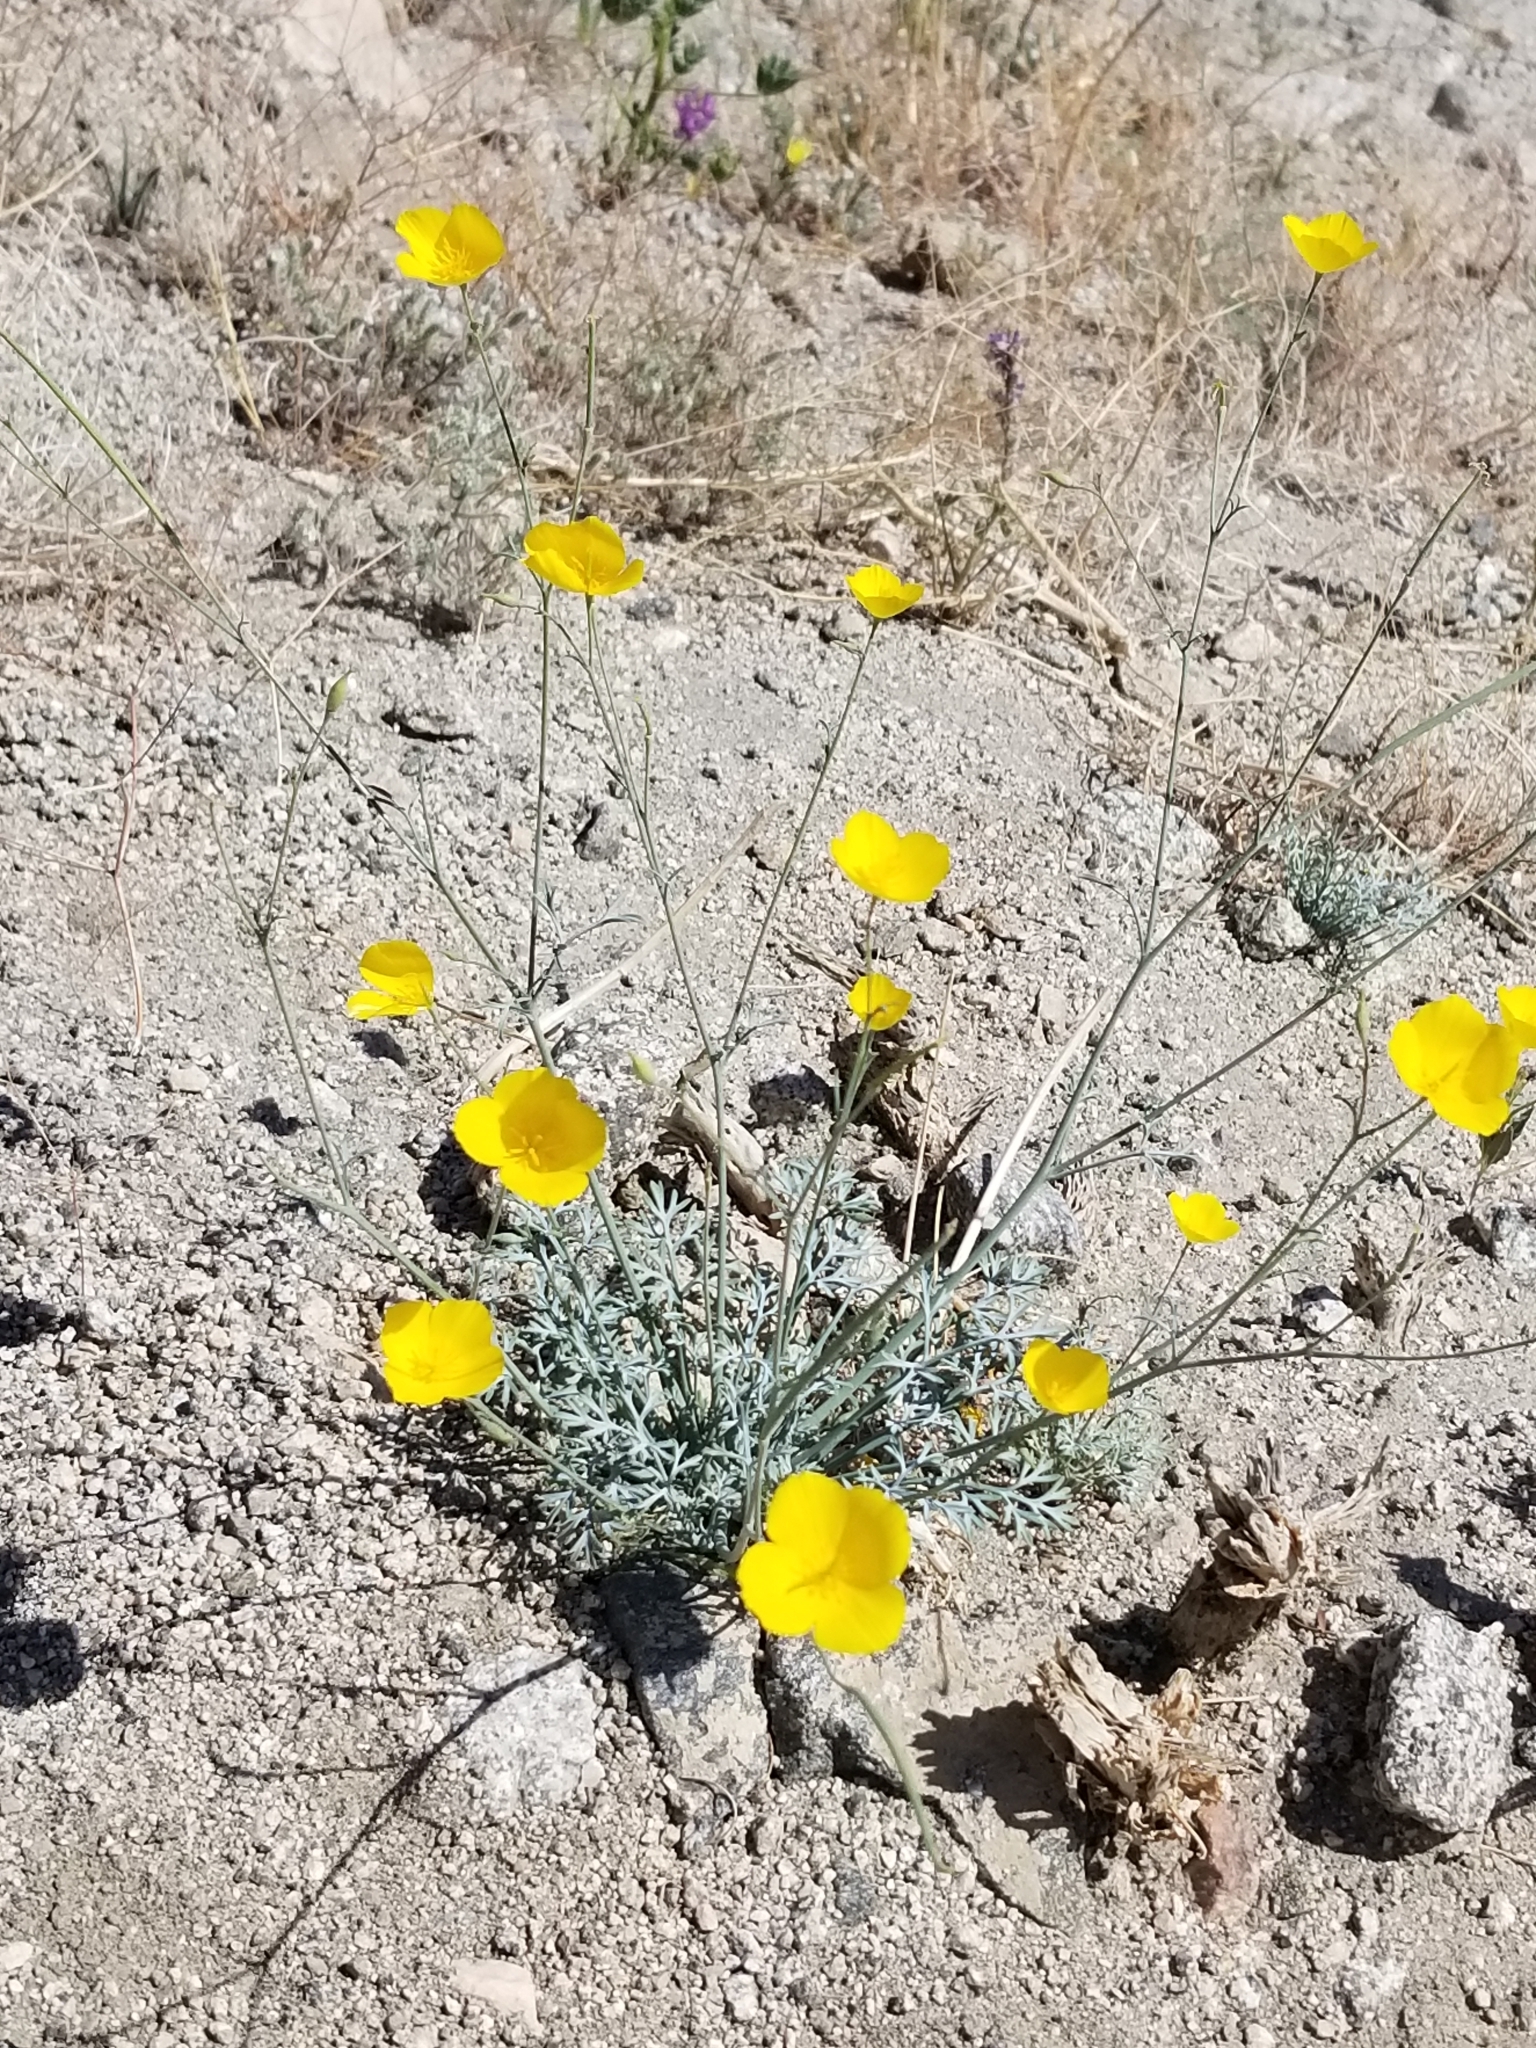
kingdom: Plantae
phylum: Tracheophyta
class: Magnoliopsida
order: Ranunculales
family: Papaveraceae
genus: Eschscholzia
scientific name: Eschscholzia parishii
